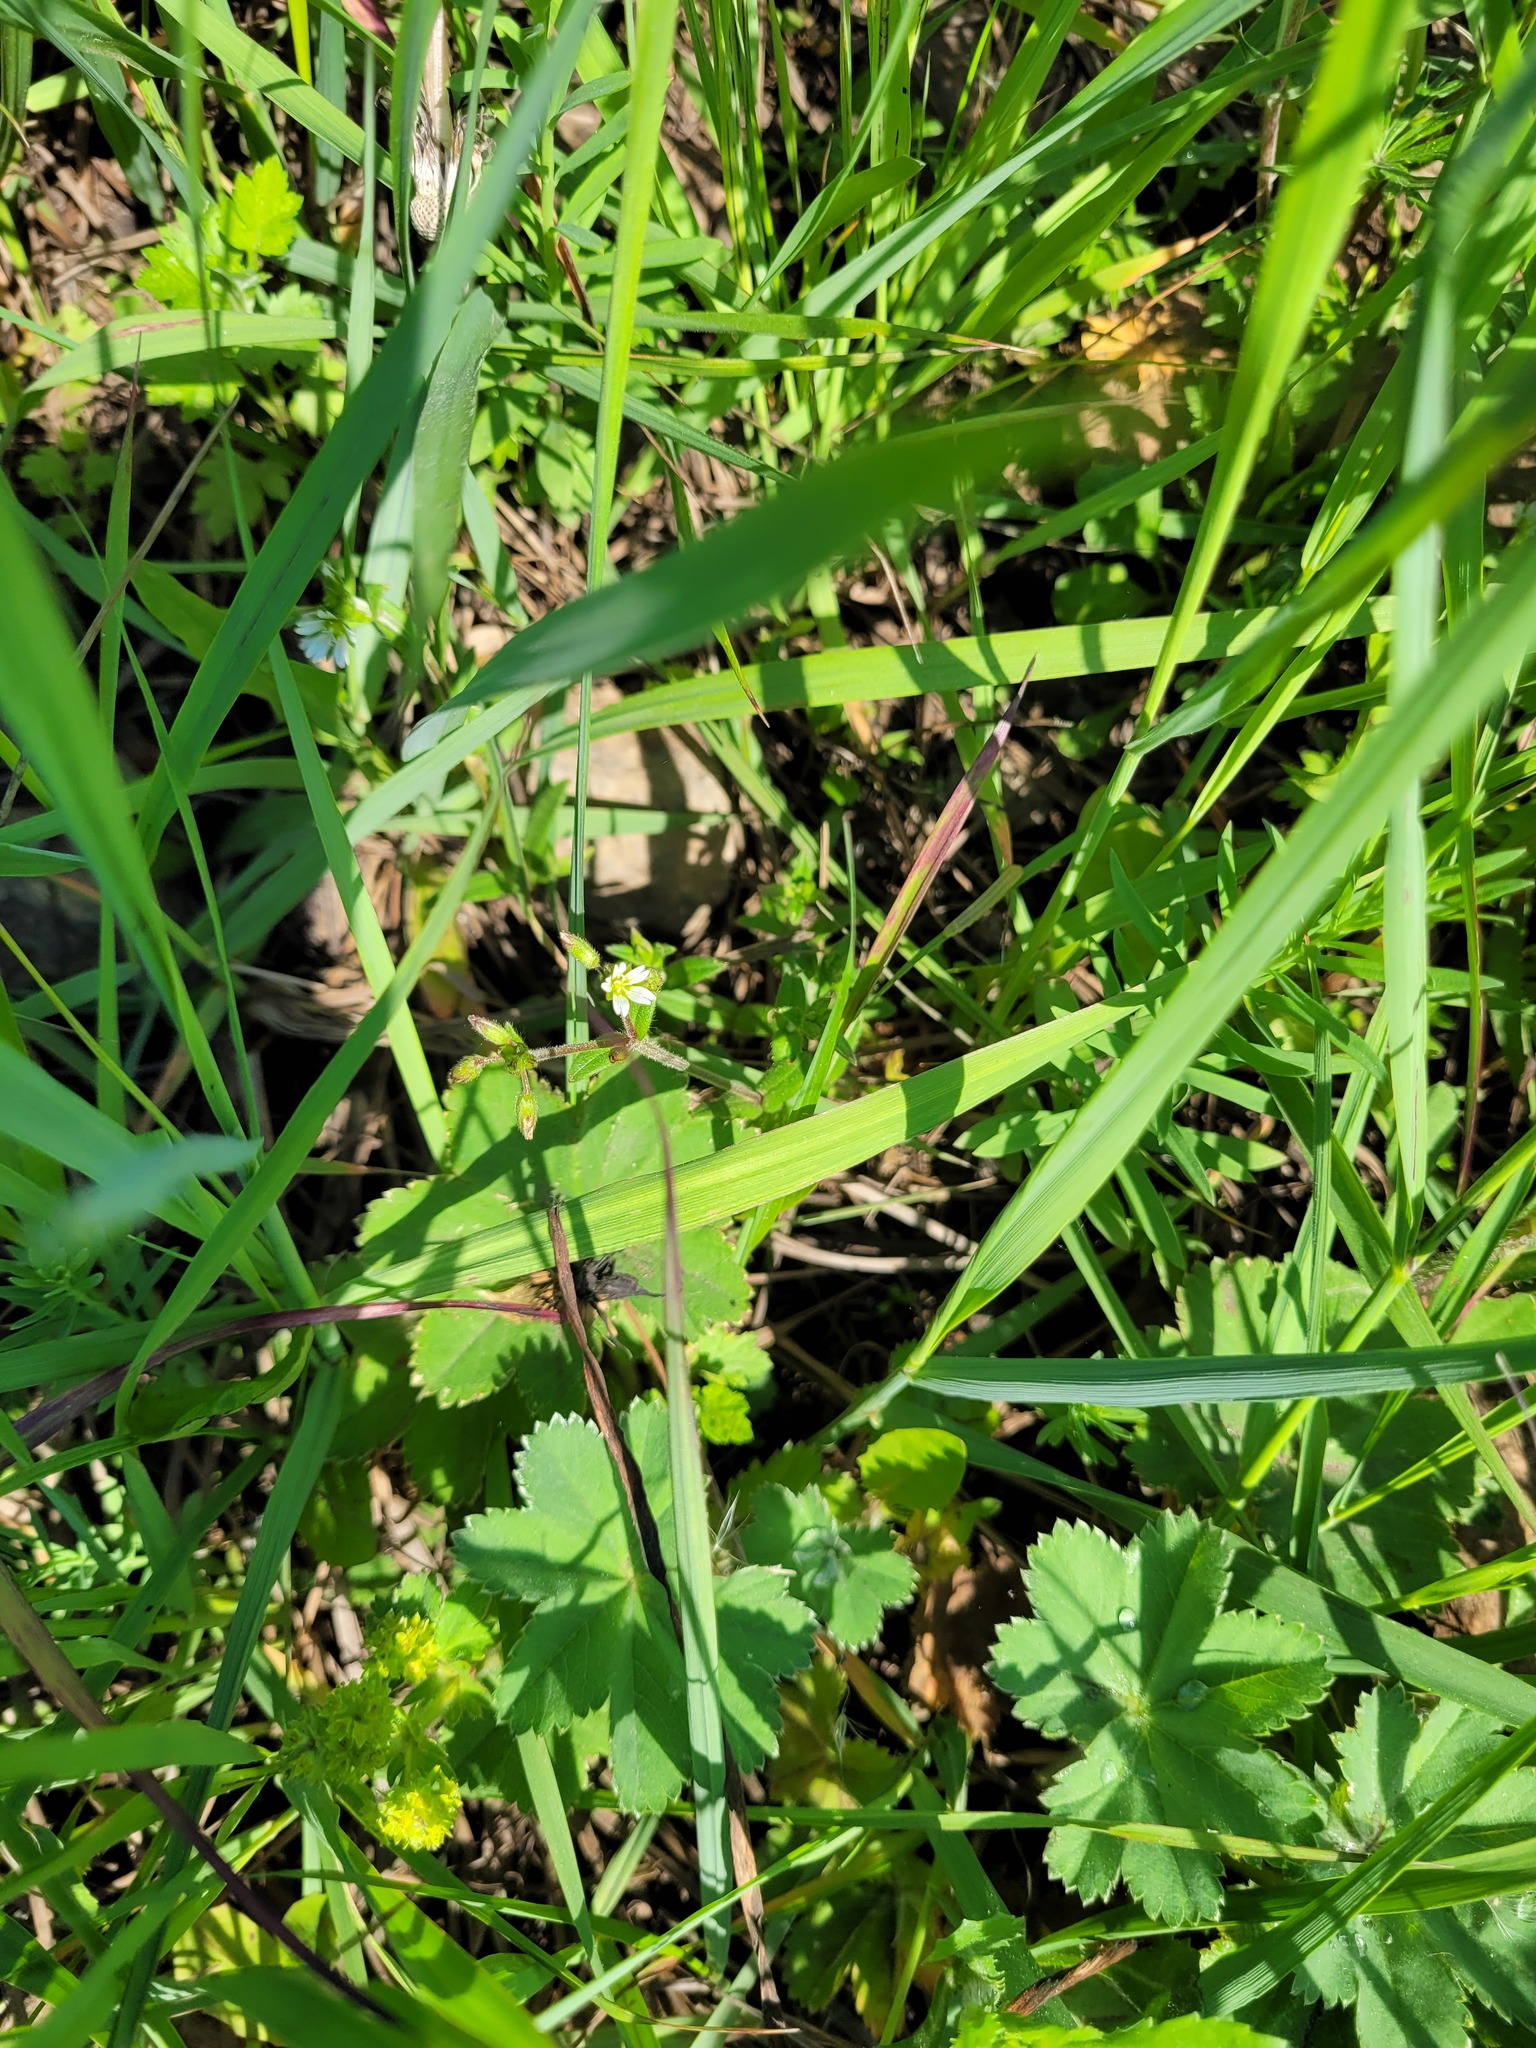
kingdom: Plantae
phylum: Tracheophyta
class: Magnoliopsida
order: Caryophyllales
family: Caryophyllaceae
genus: Cerastium
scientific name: Cerastium holosteoides
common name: Big chickweed
